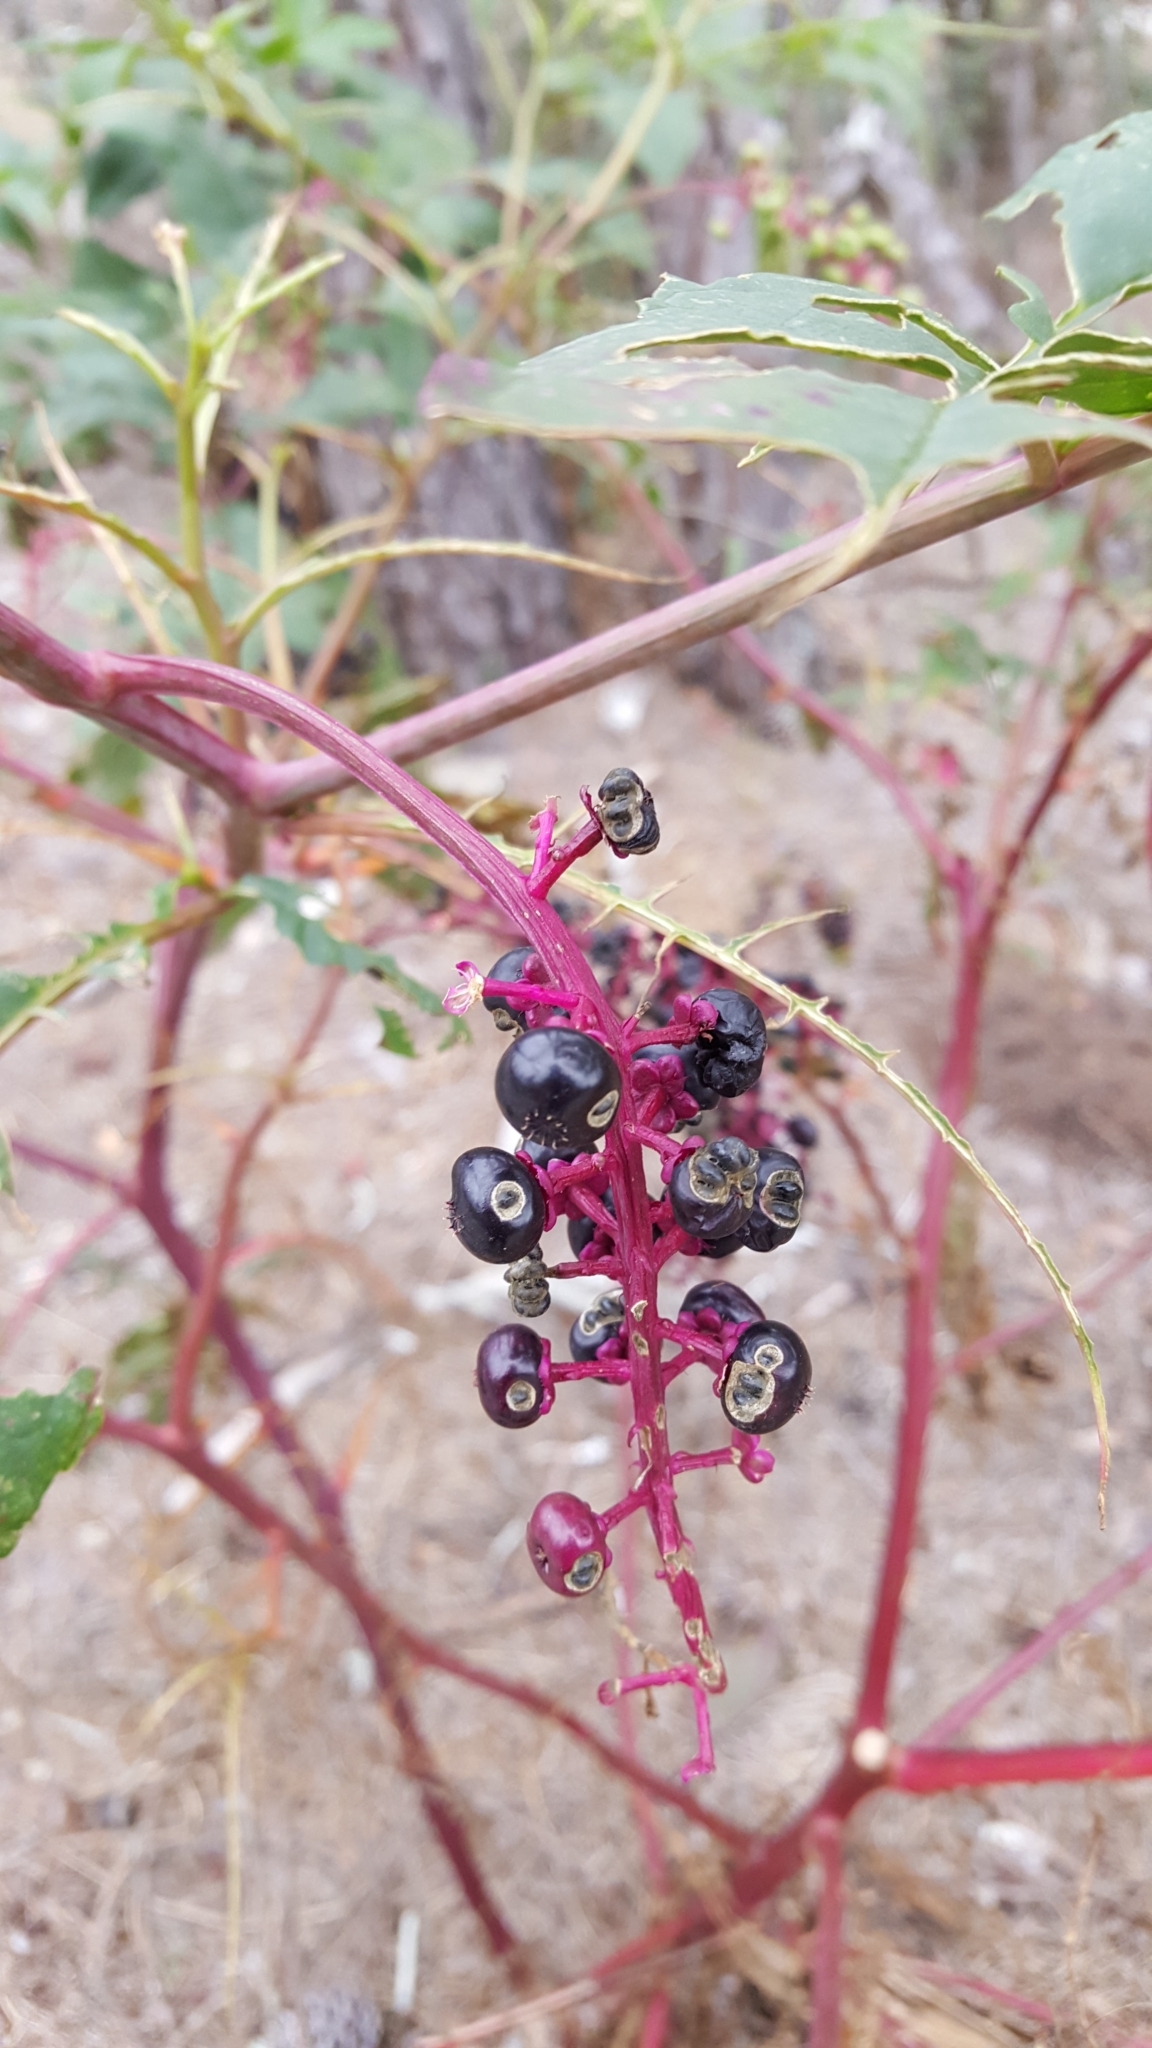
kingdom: Plantae
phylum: Tracheophyta
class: Magnoliopsida
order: Caryophyllales
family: Phytolaccaceae
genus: Phytolacca
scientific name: Phytolacca americana
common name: American pokeweed
